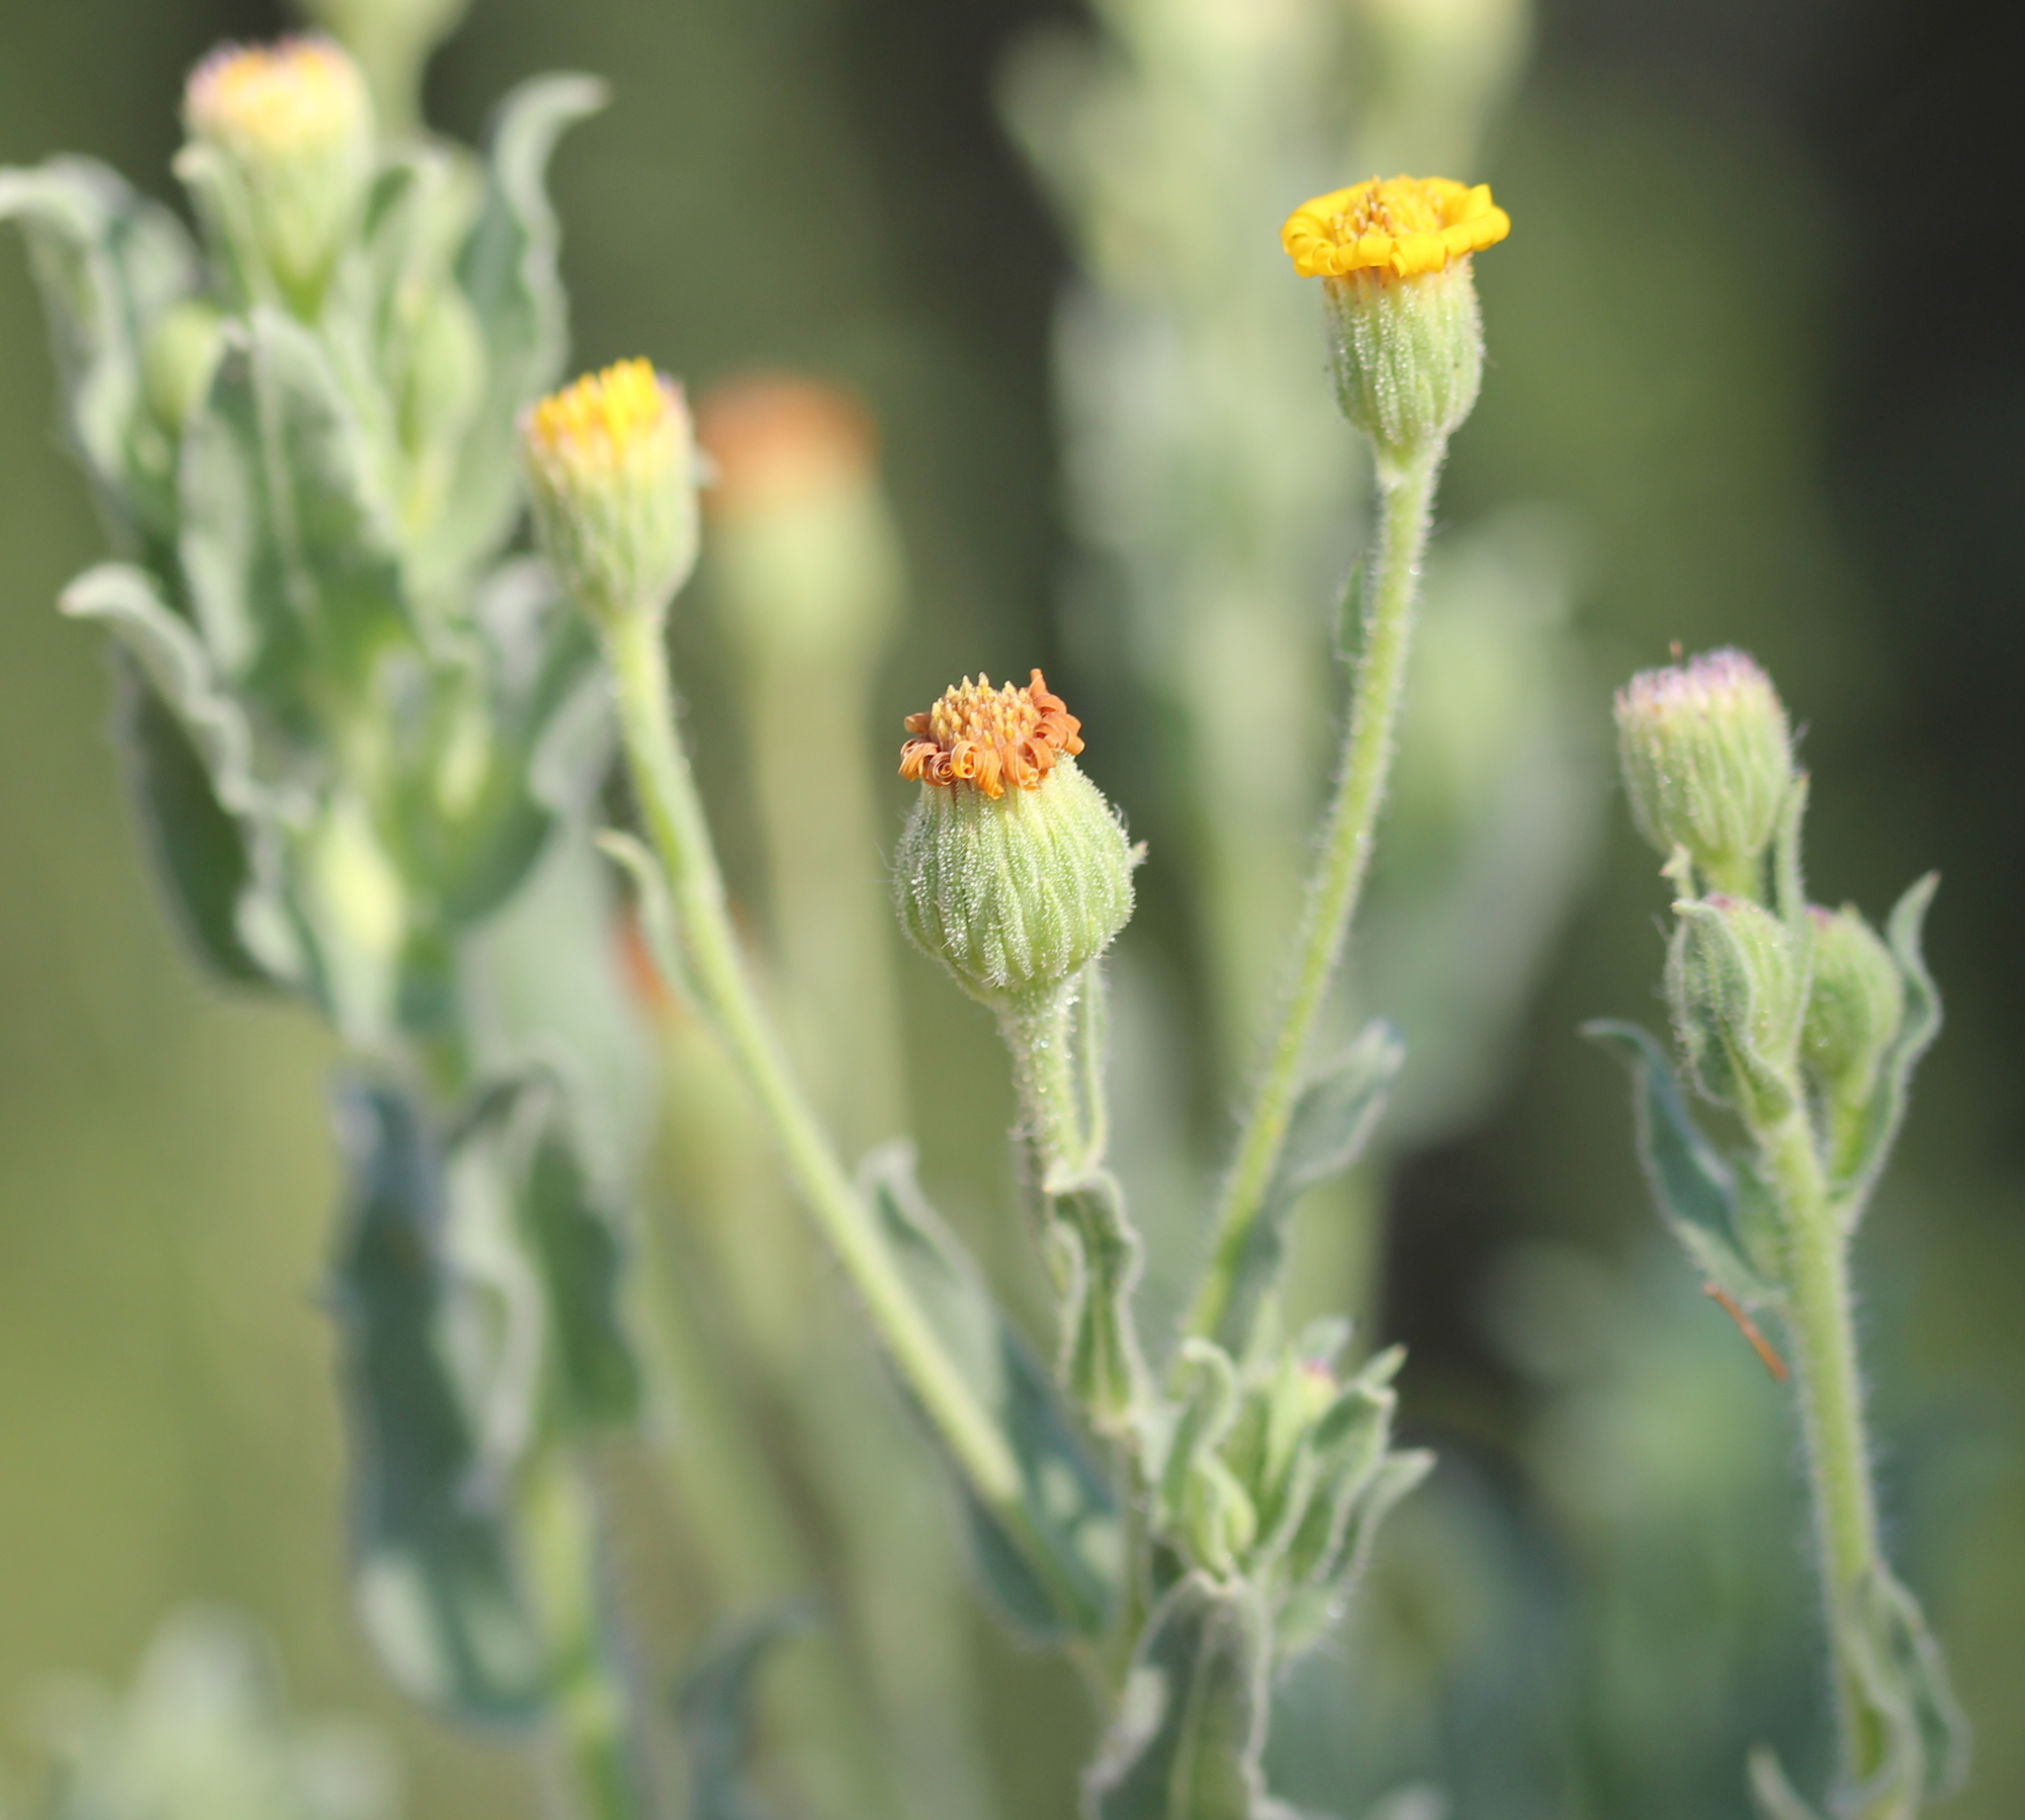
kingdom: Plantae
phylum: Tracheophyta
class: Magnoliopsida
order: Asterales
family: Asteraceae
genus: Heterotheca
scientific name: Heterotheca grandiflora
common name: Telegraphweed
